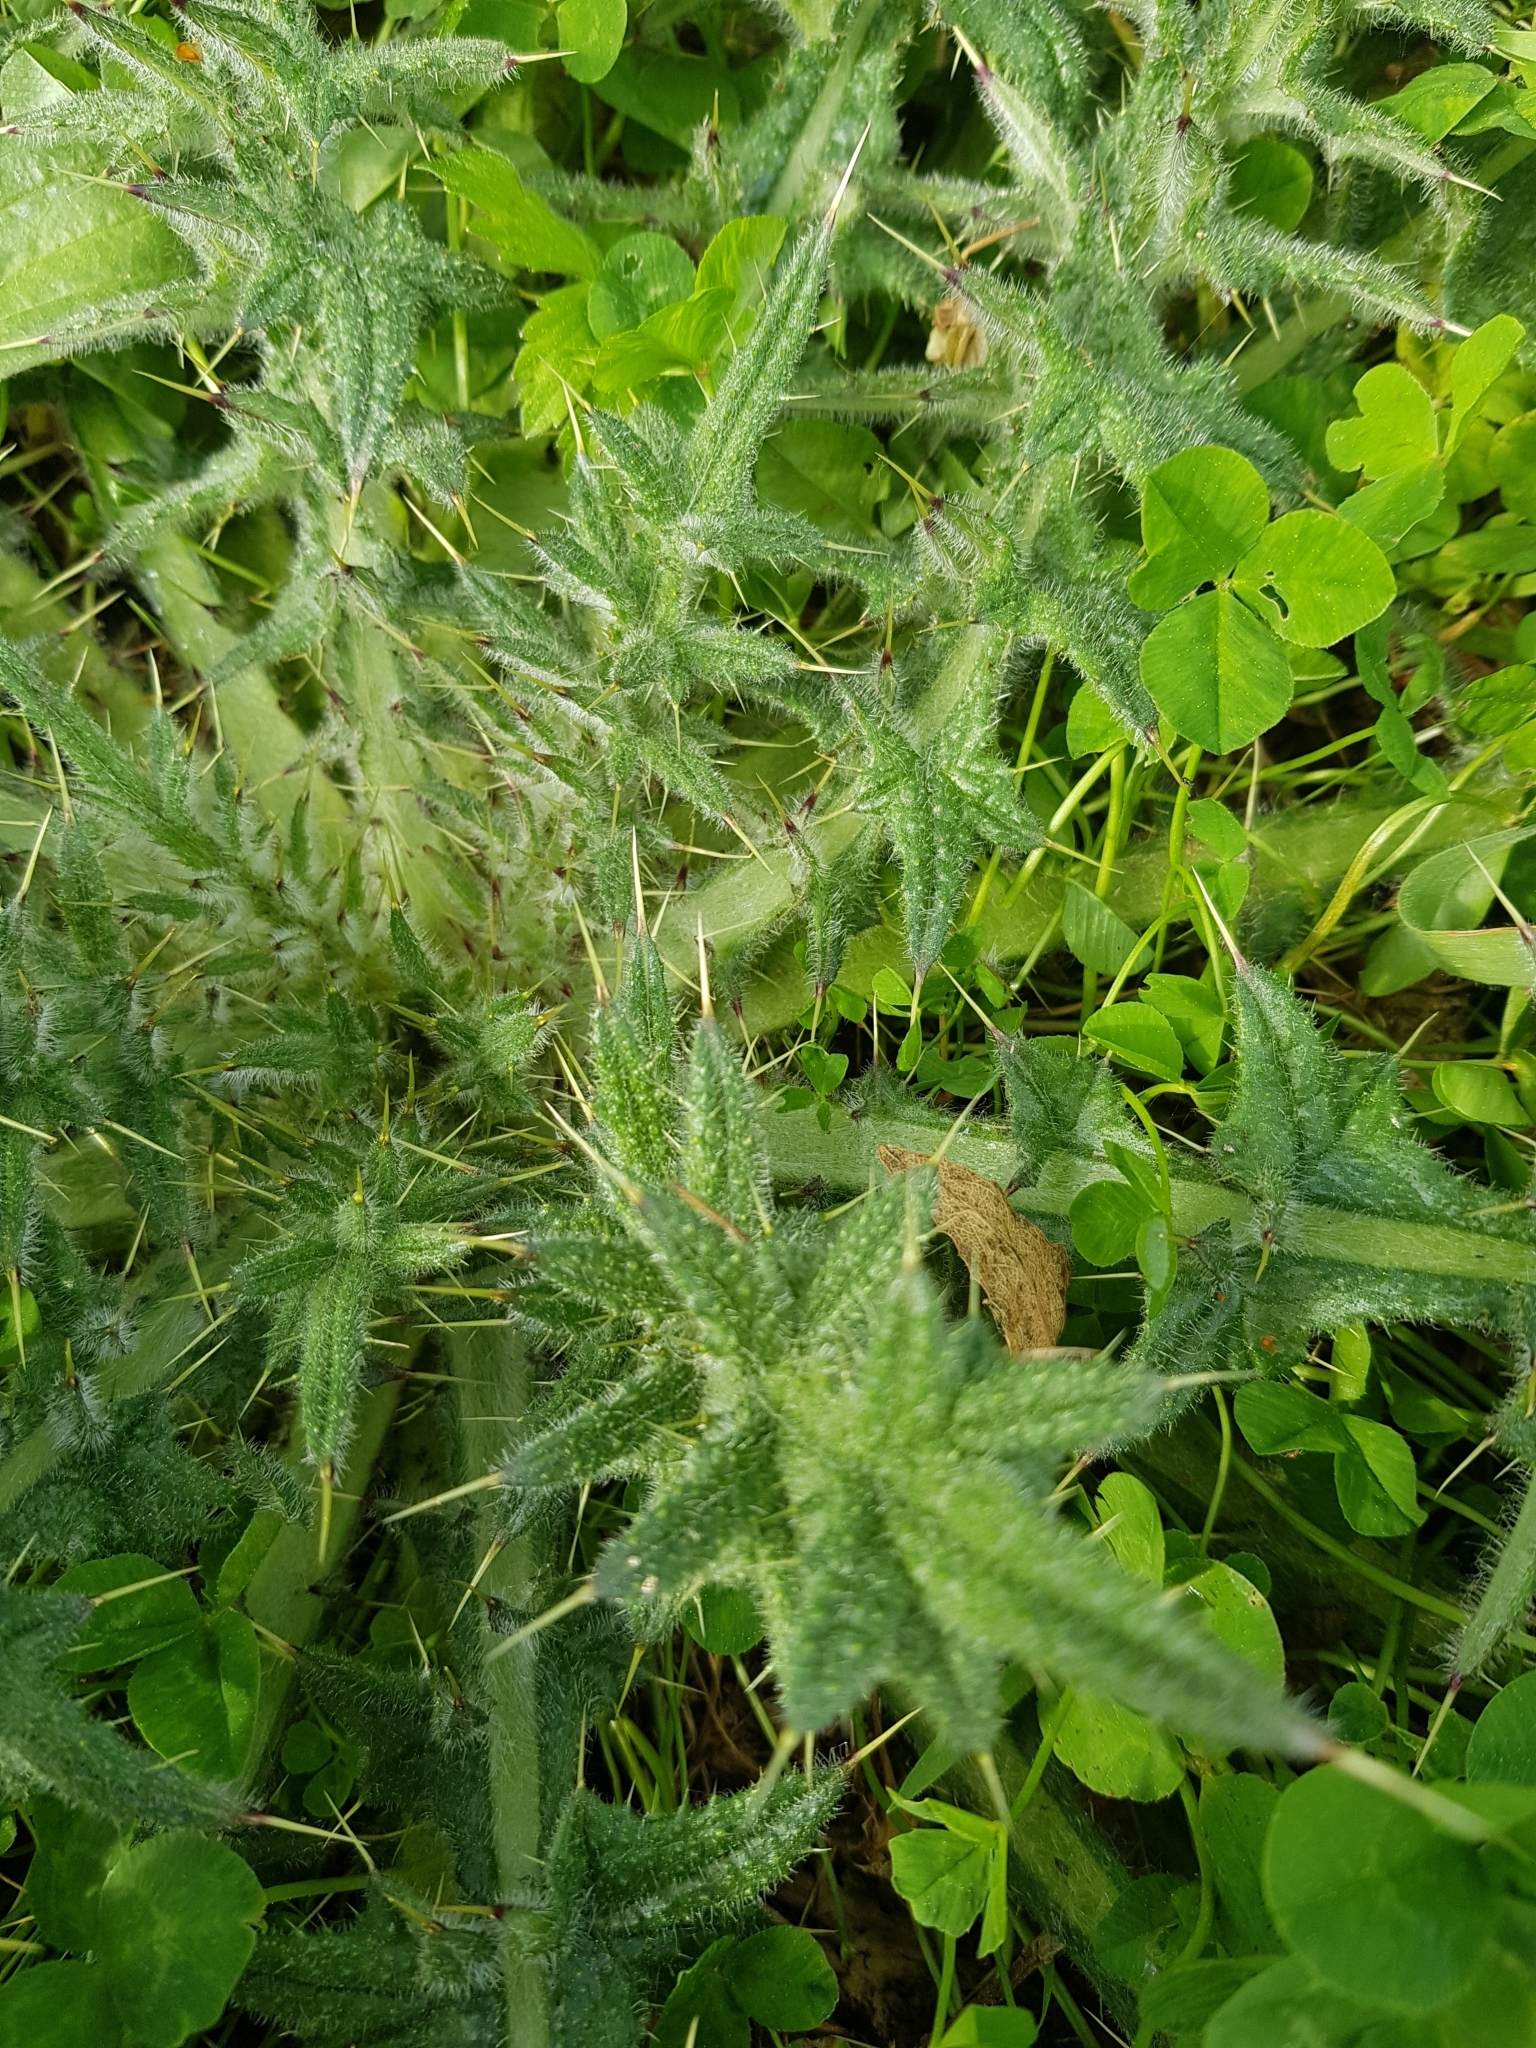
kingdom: Plantae
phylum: Tracheophyta
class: Magnoliopsida
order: Asterales
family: Asteraceae
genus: Cirsium
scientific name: Cirsium vulgare
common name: Bull thistle
